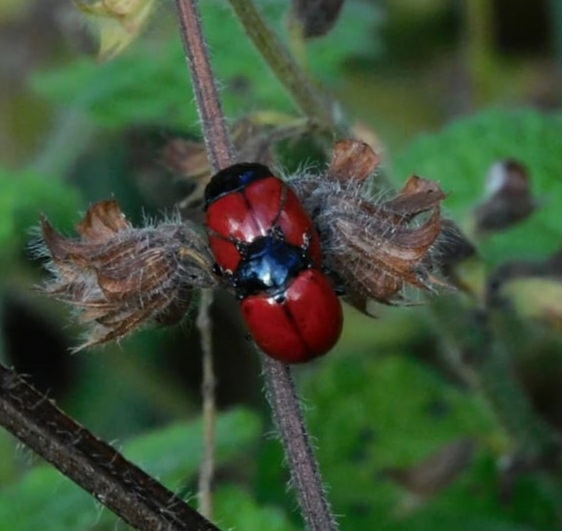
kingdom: Animalia
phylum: Arthropoda
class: Insecta
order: Coleoptera
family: Chrysomelidae
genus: Chrysolina
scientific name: Chrysolina
